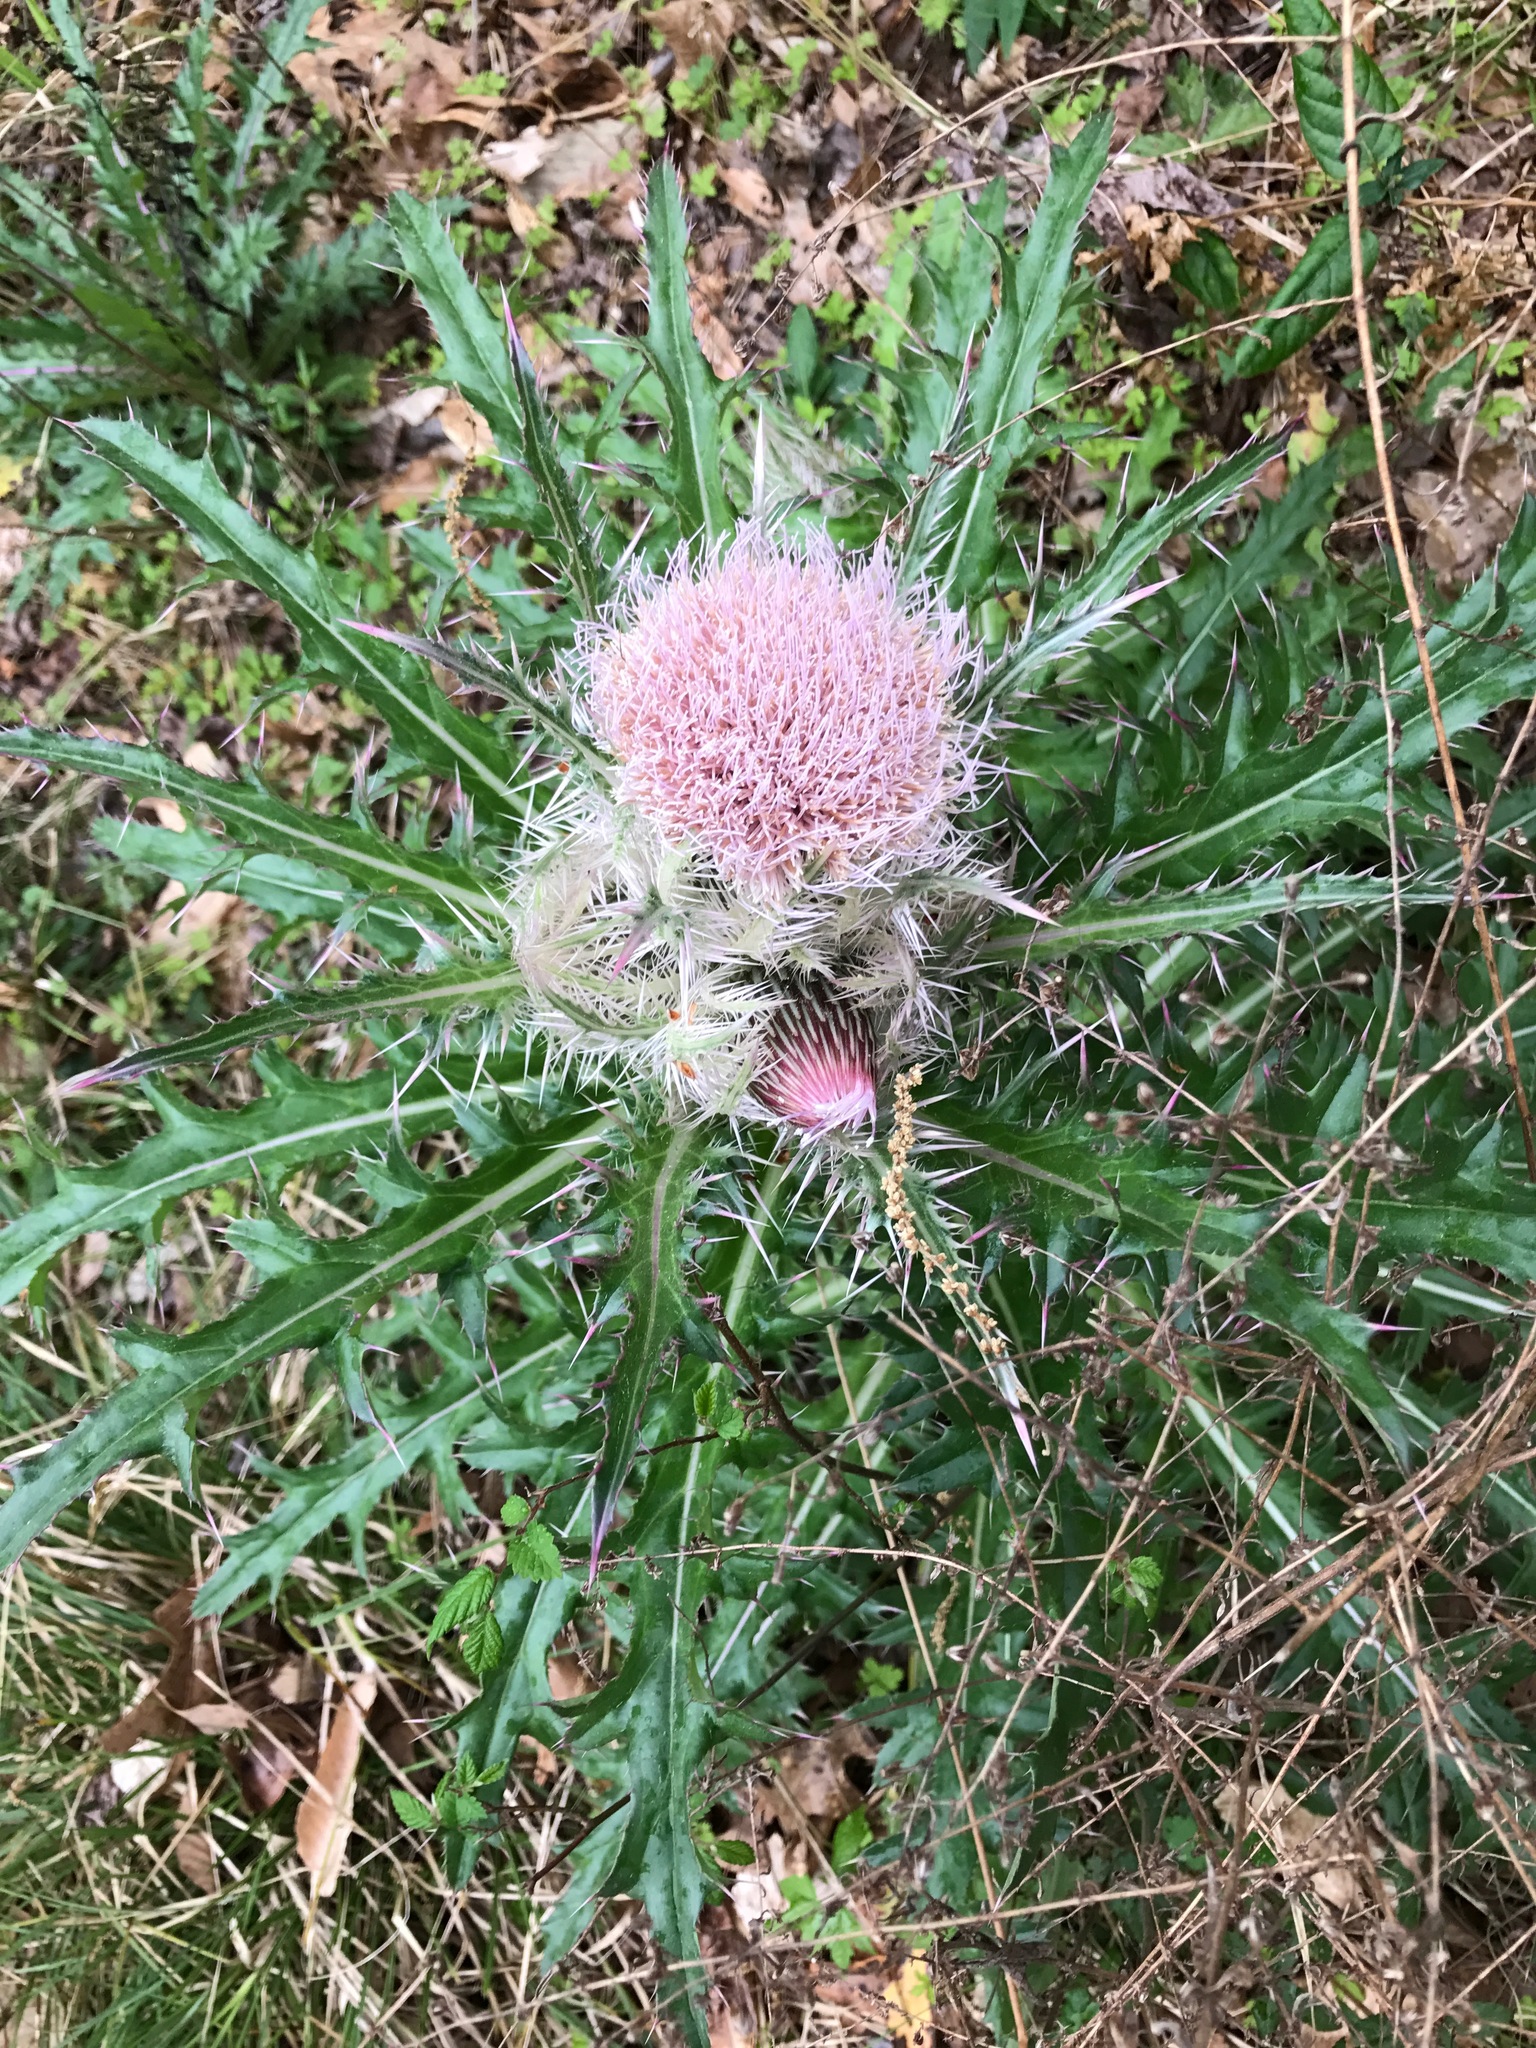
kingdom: Plantae
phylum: Tracheophyta
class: Magnoliopsida
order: Asterales
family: Asteraceae
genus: Cirsium
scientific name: Cirsium horridulum
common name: Bristly thistle
